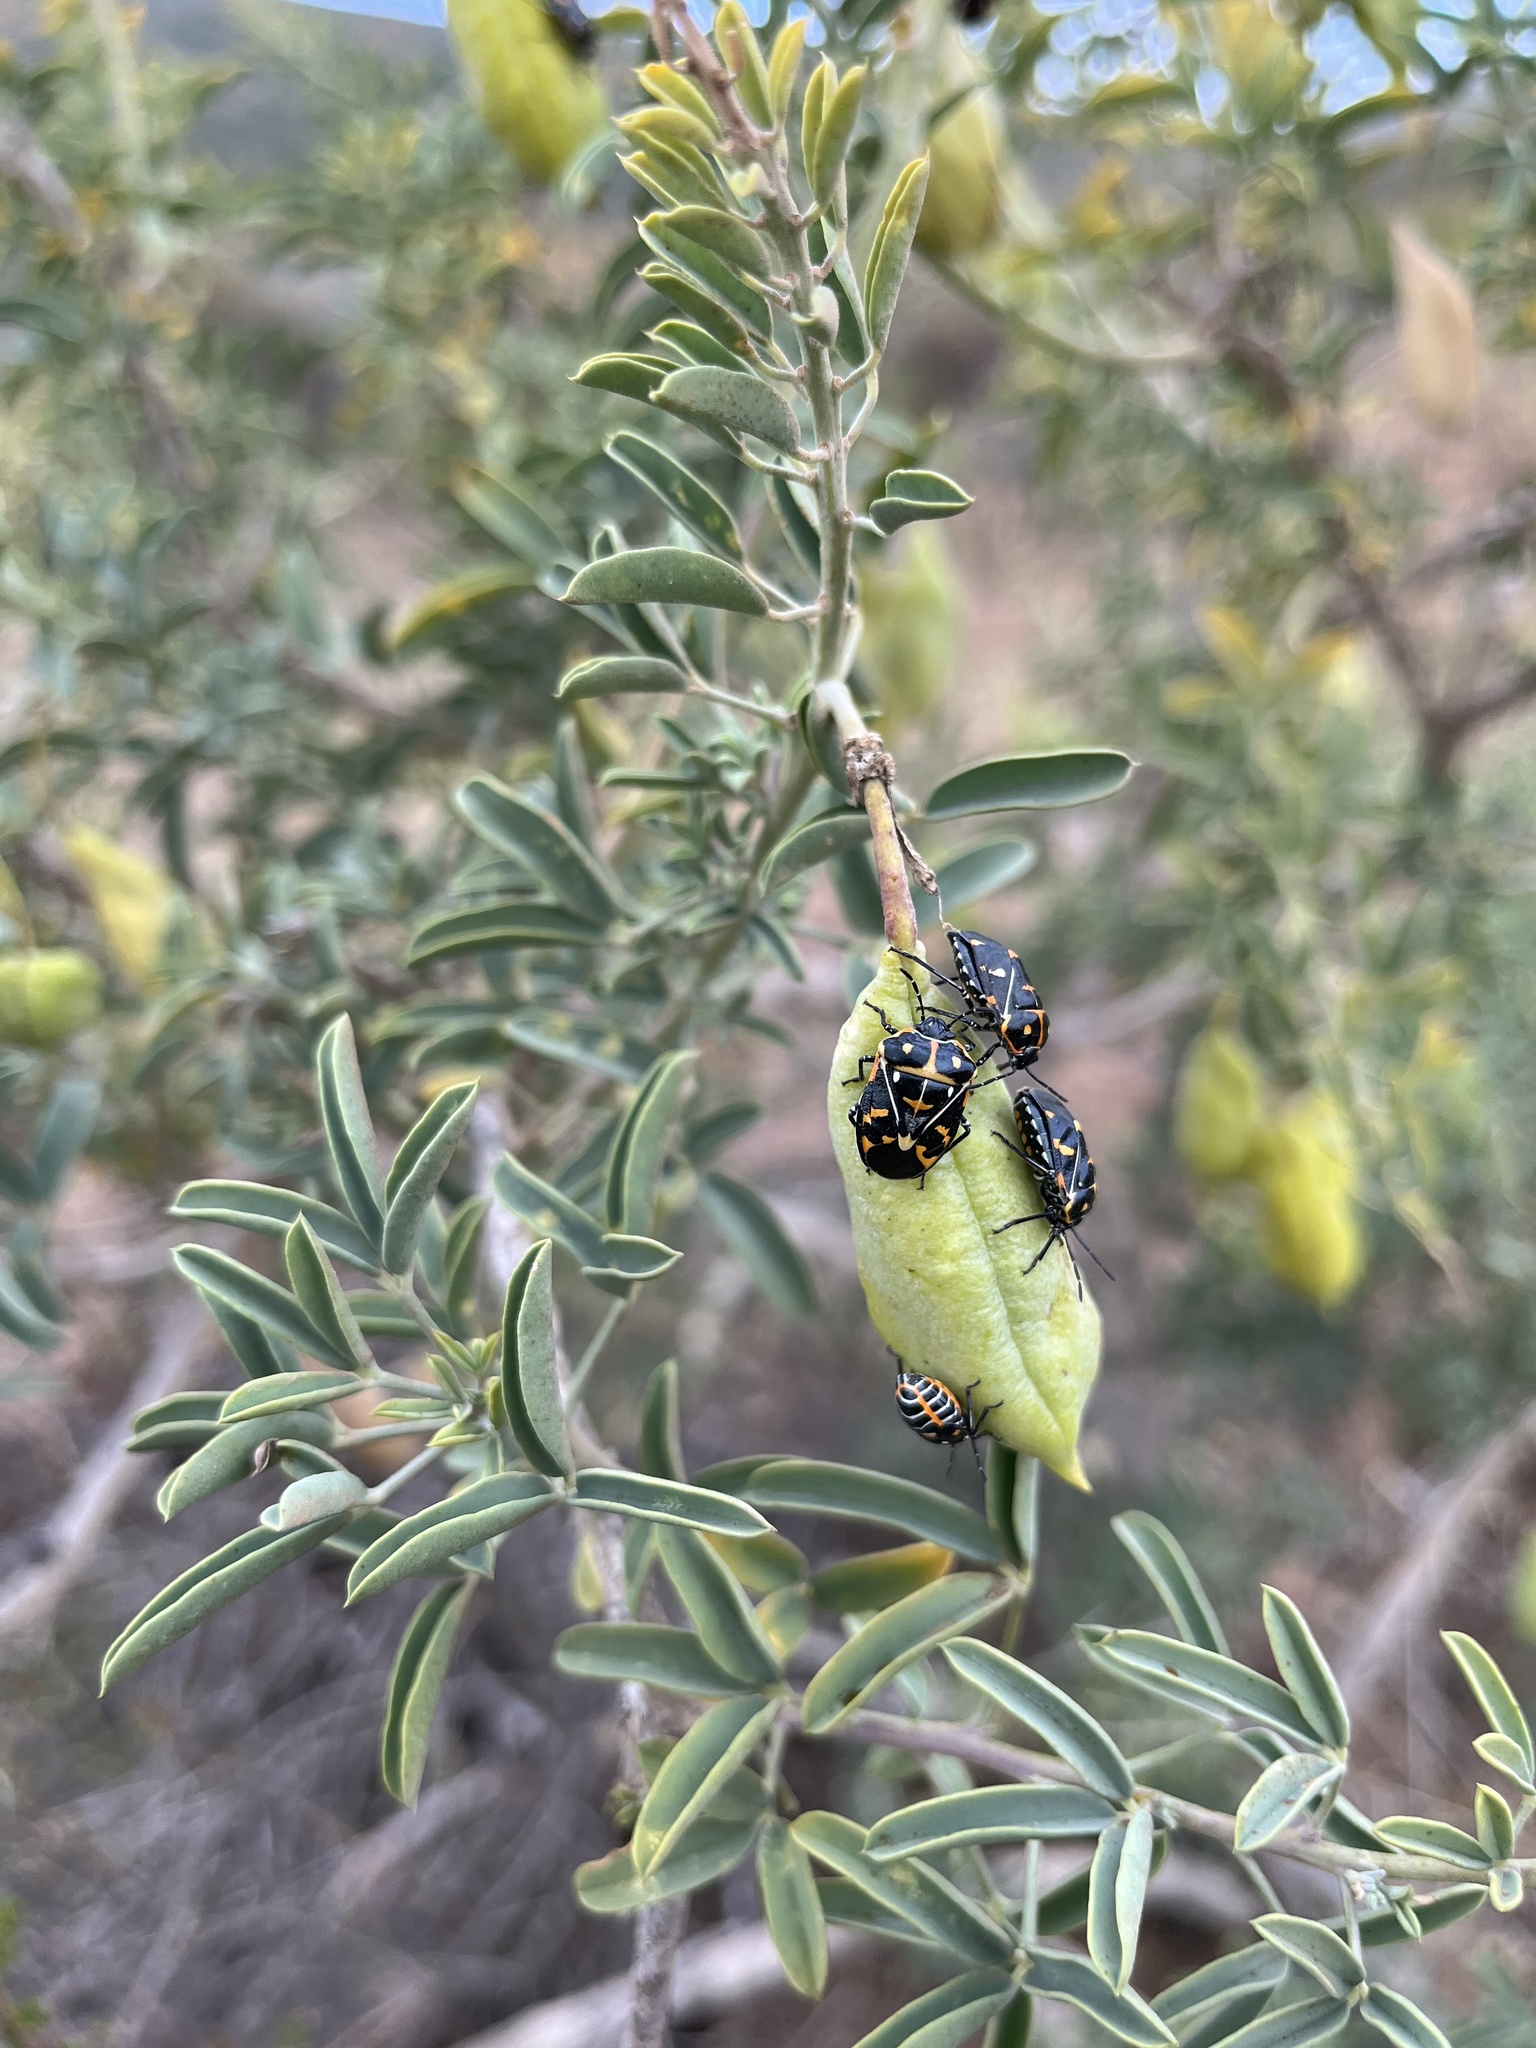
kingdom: Animalia
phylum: Arthropoda
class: Insecta
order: Hemiptera
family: Pentatomidae
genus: Murgantia
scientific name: Murgantia histrionica
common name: Harlequin bug
